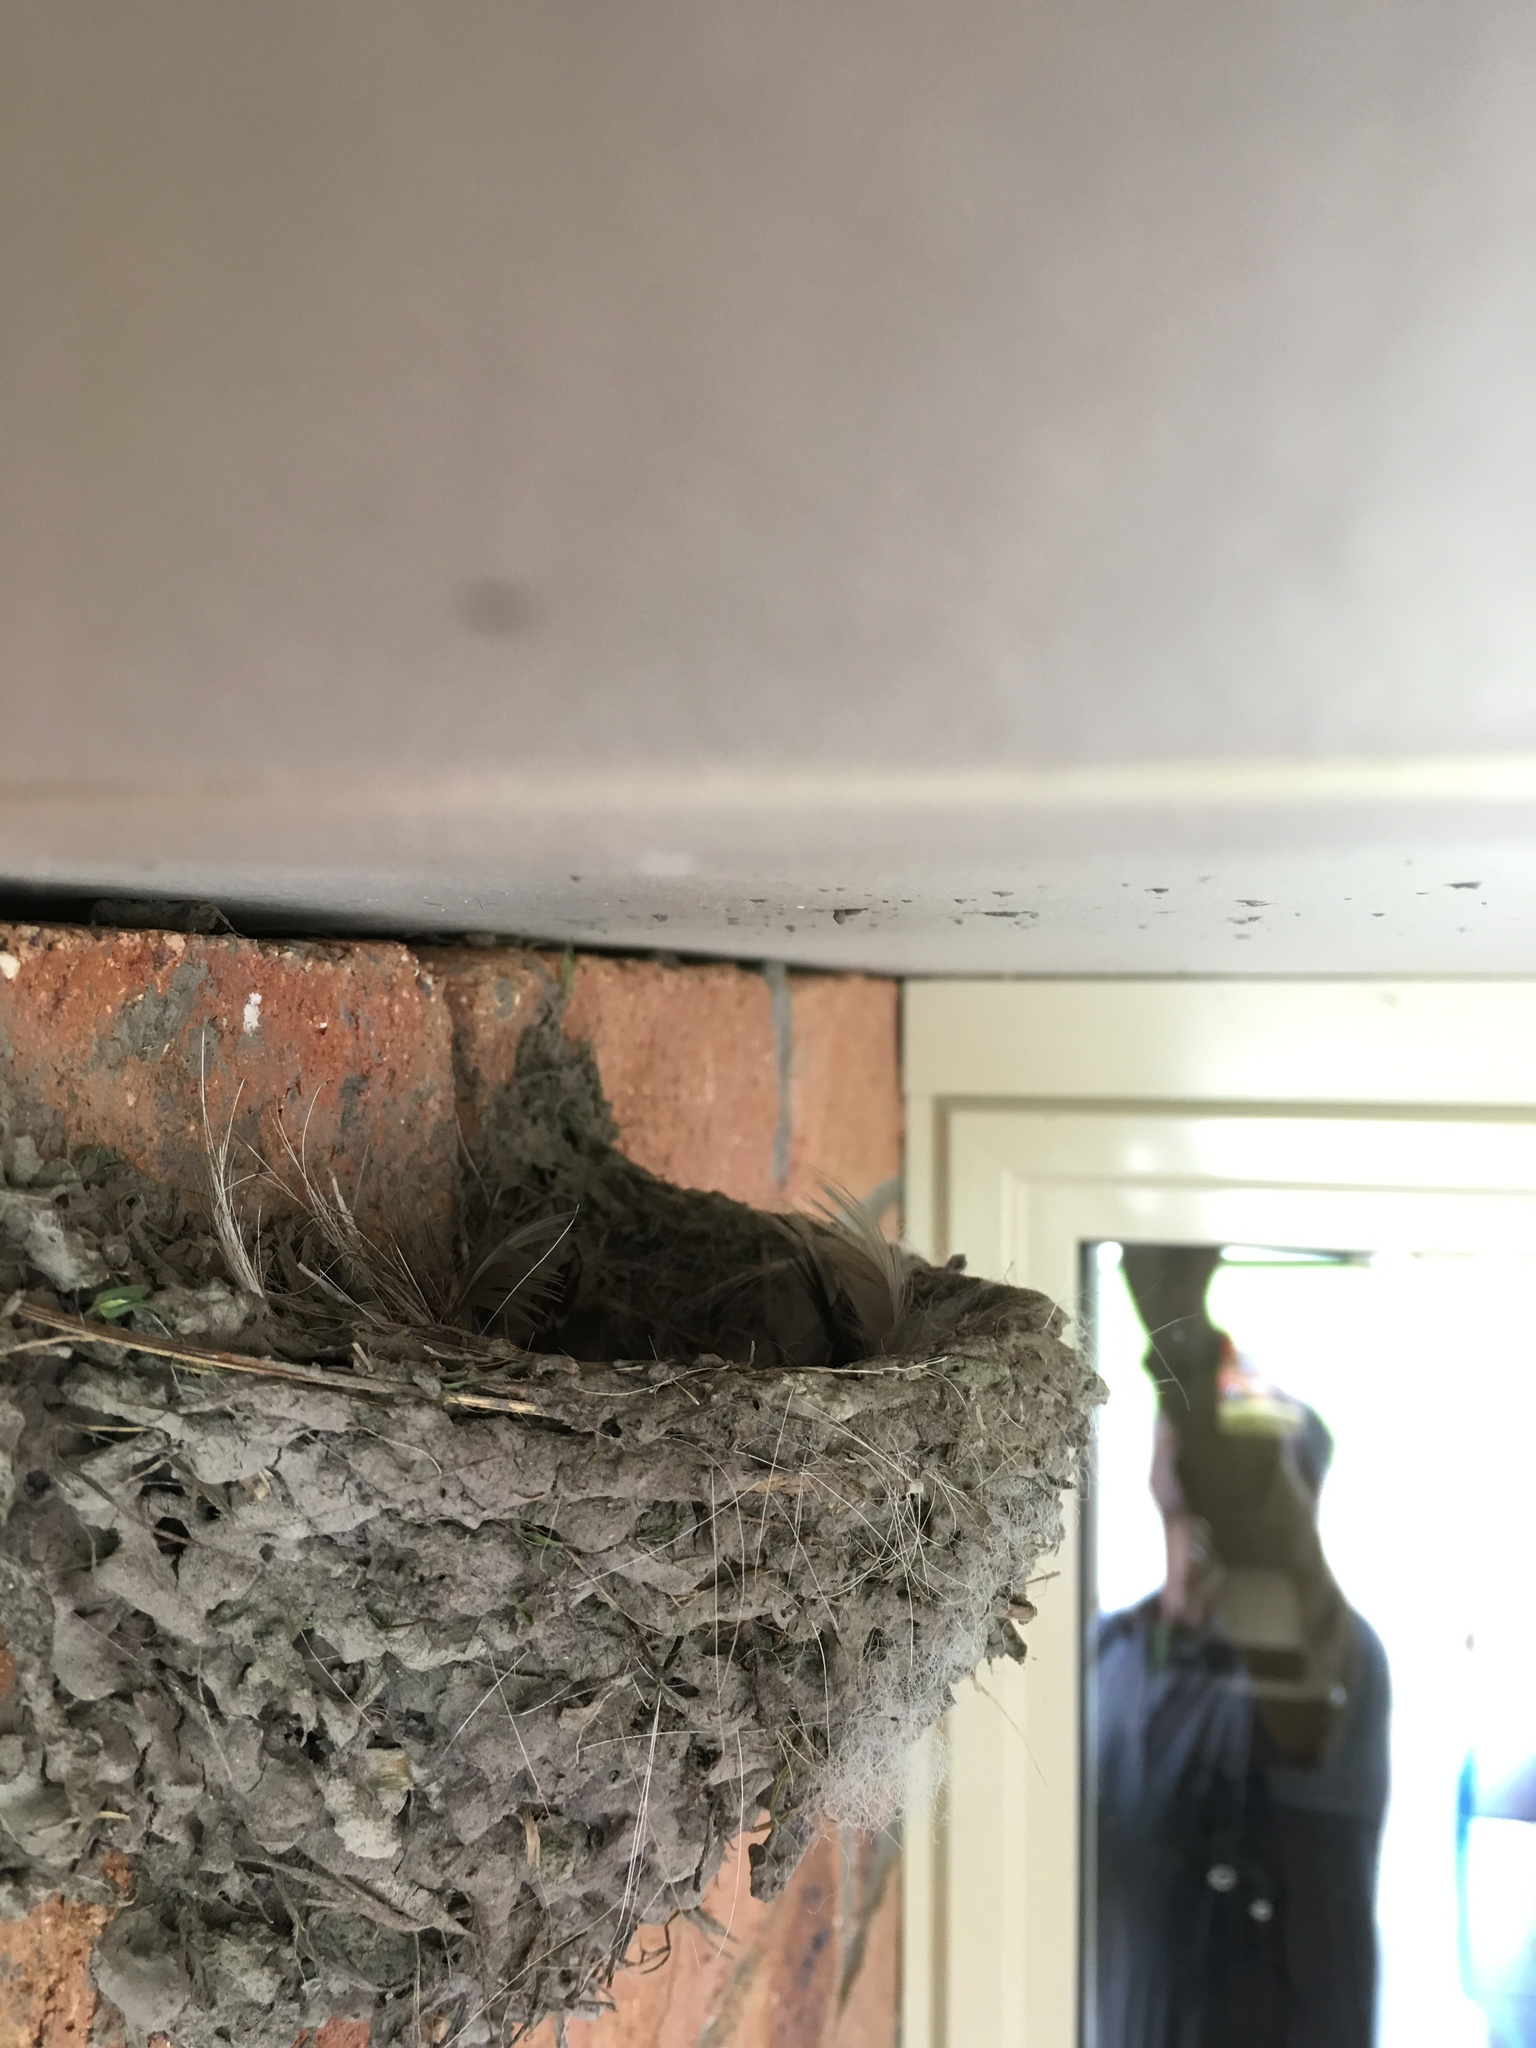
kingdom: Animalia
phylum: Chordata
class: Aves
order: Passeriformes
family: Hirundinidae
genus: Hirundo
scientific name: Hirundo neoxena
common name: Welcome swallow
